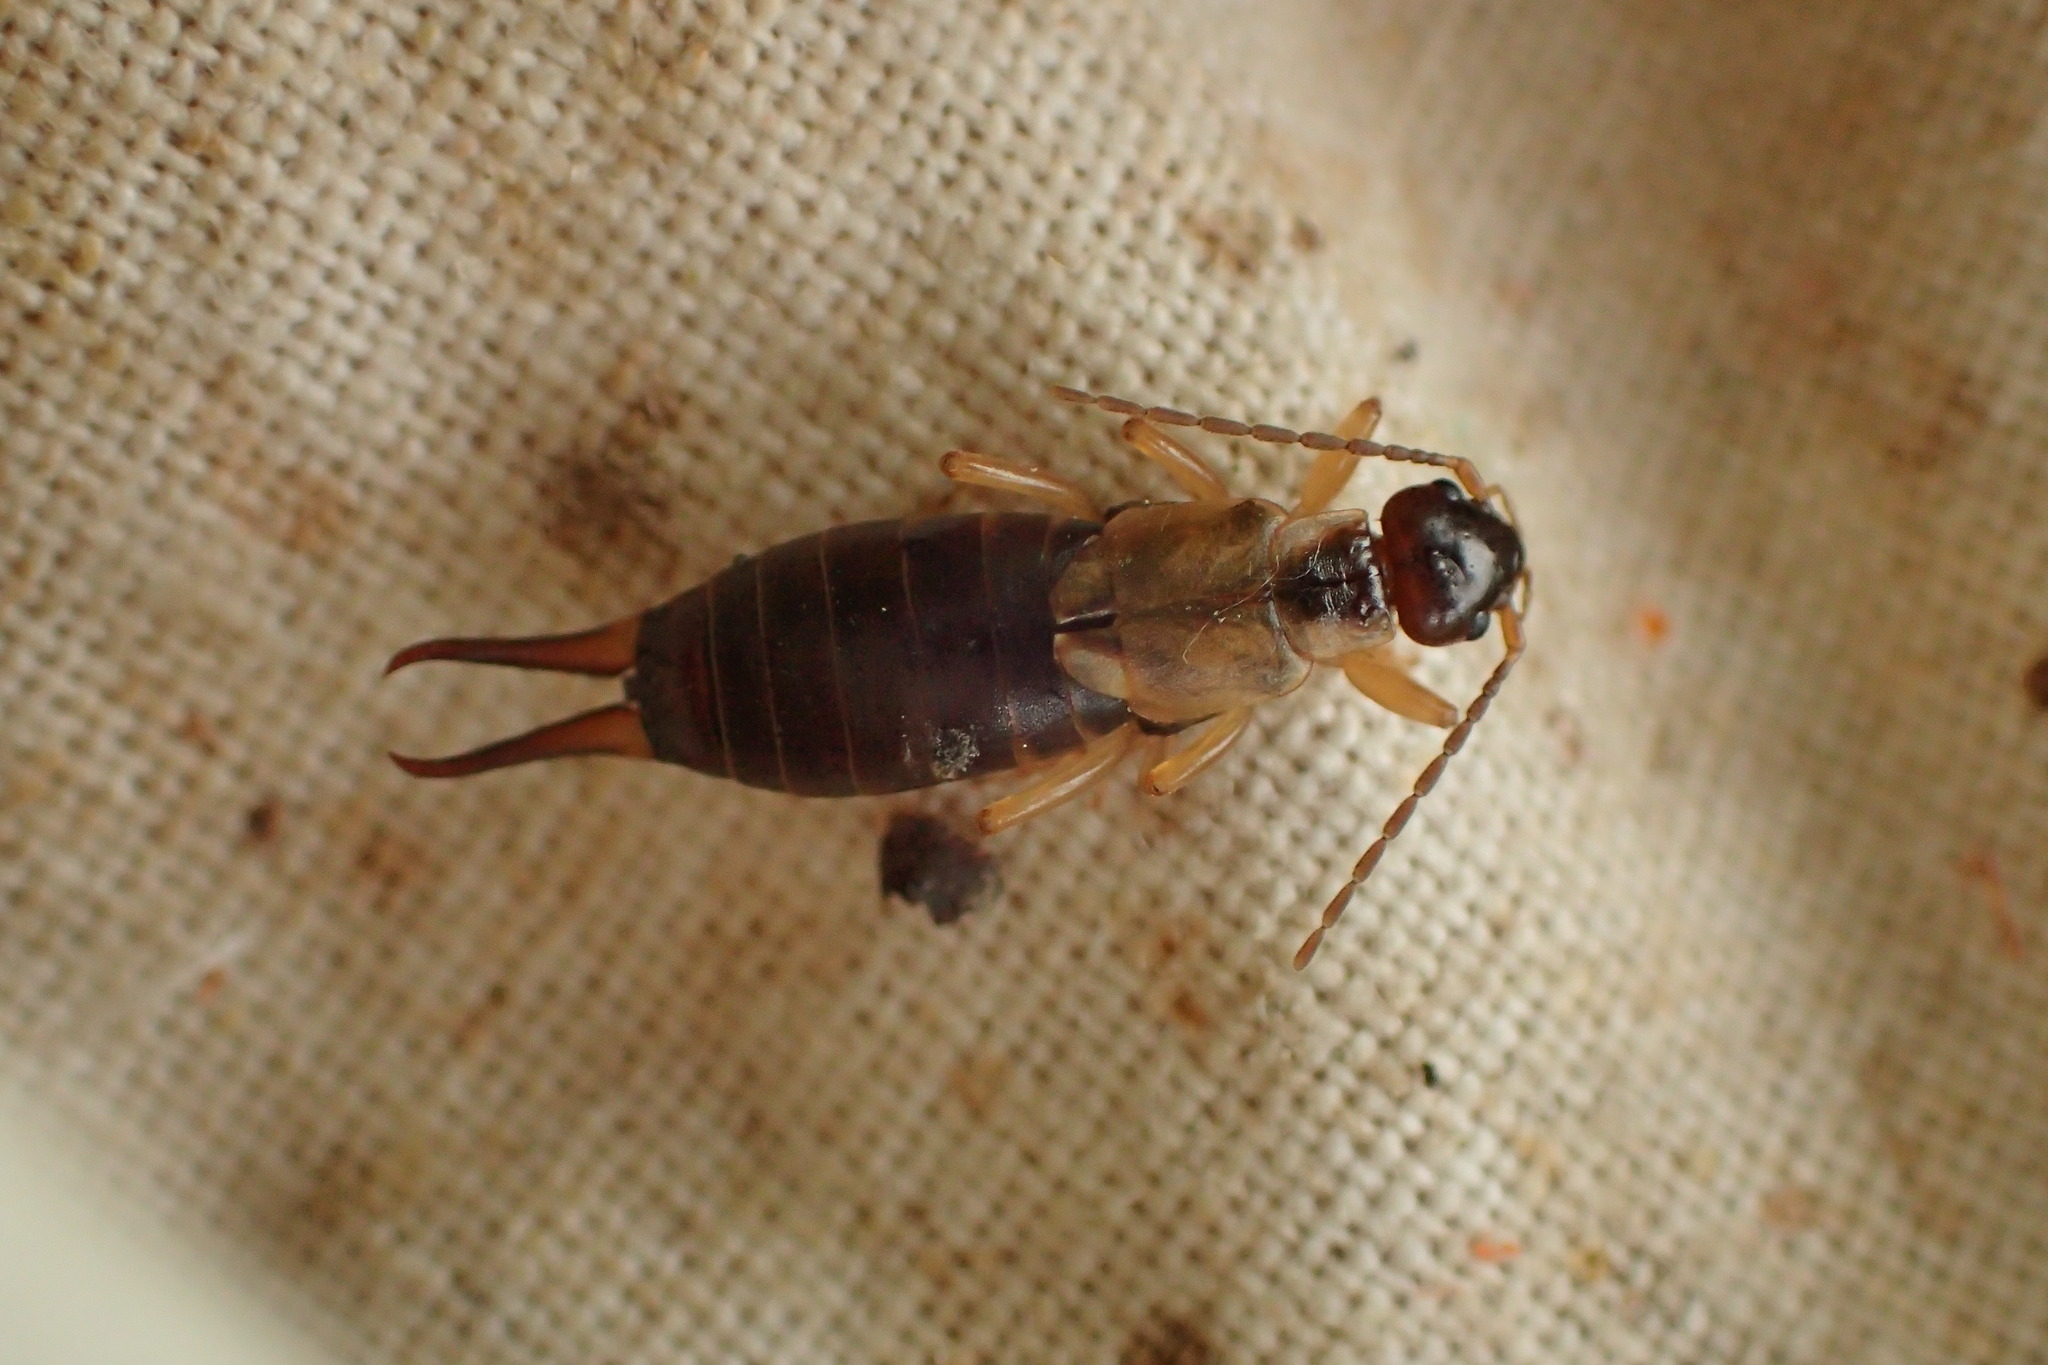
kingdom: Animalia
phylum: Arthropoda
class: Insecta
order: Dermaptera
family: Forficulidae
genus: Forficula
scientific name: Forficula
